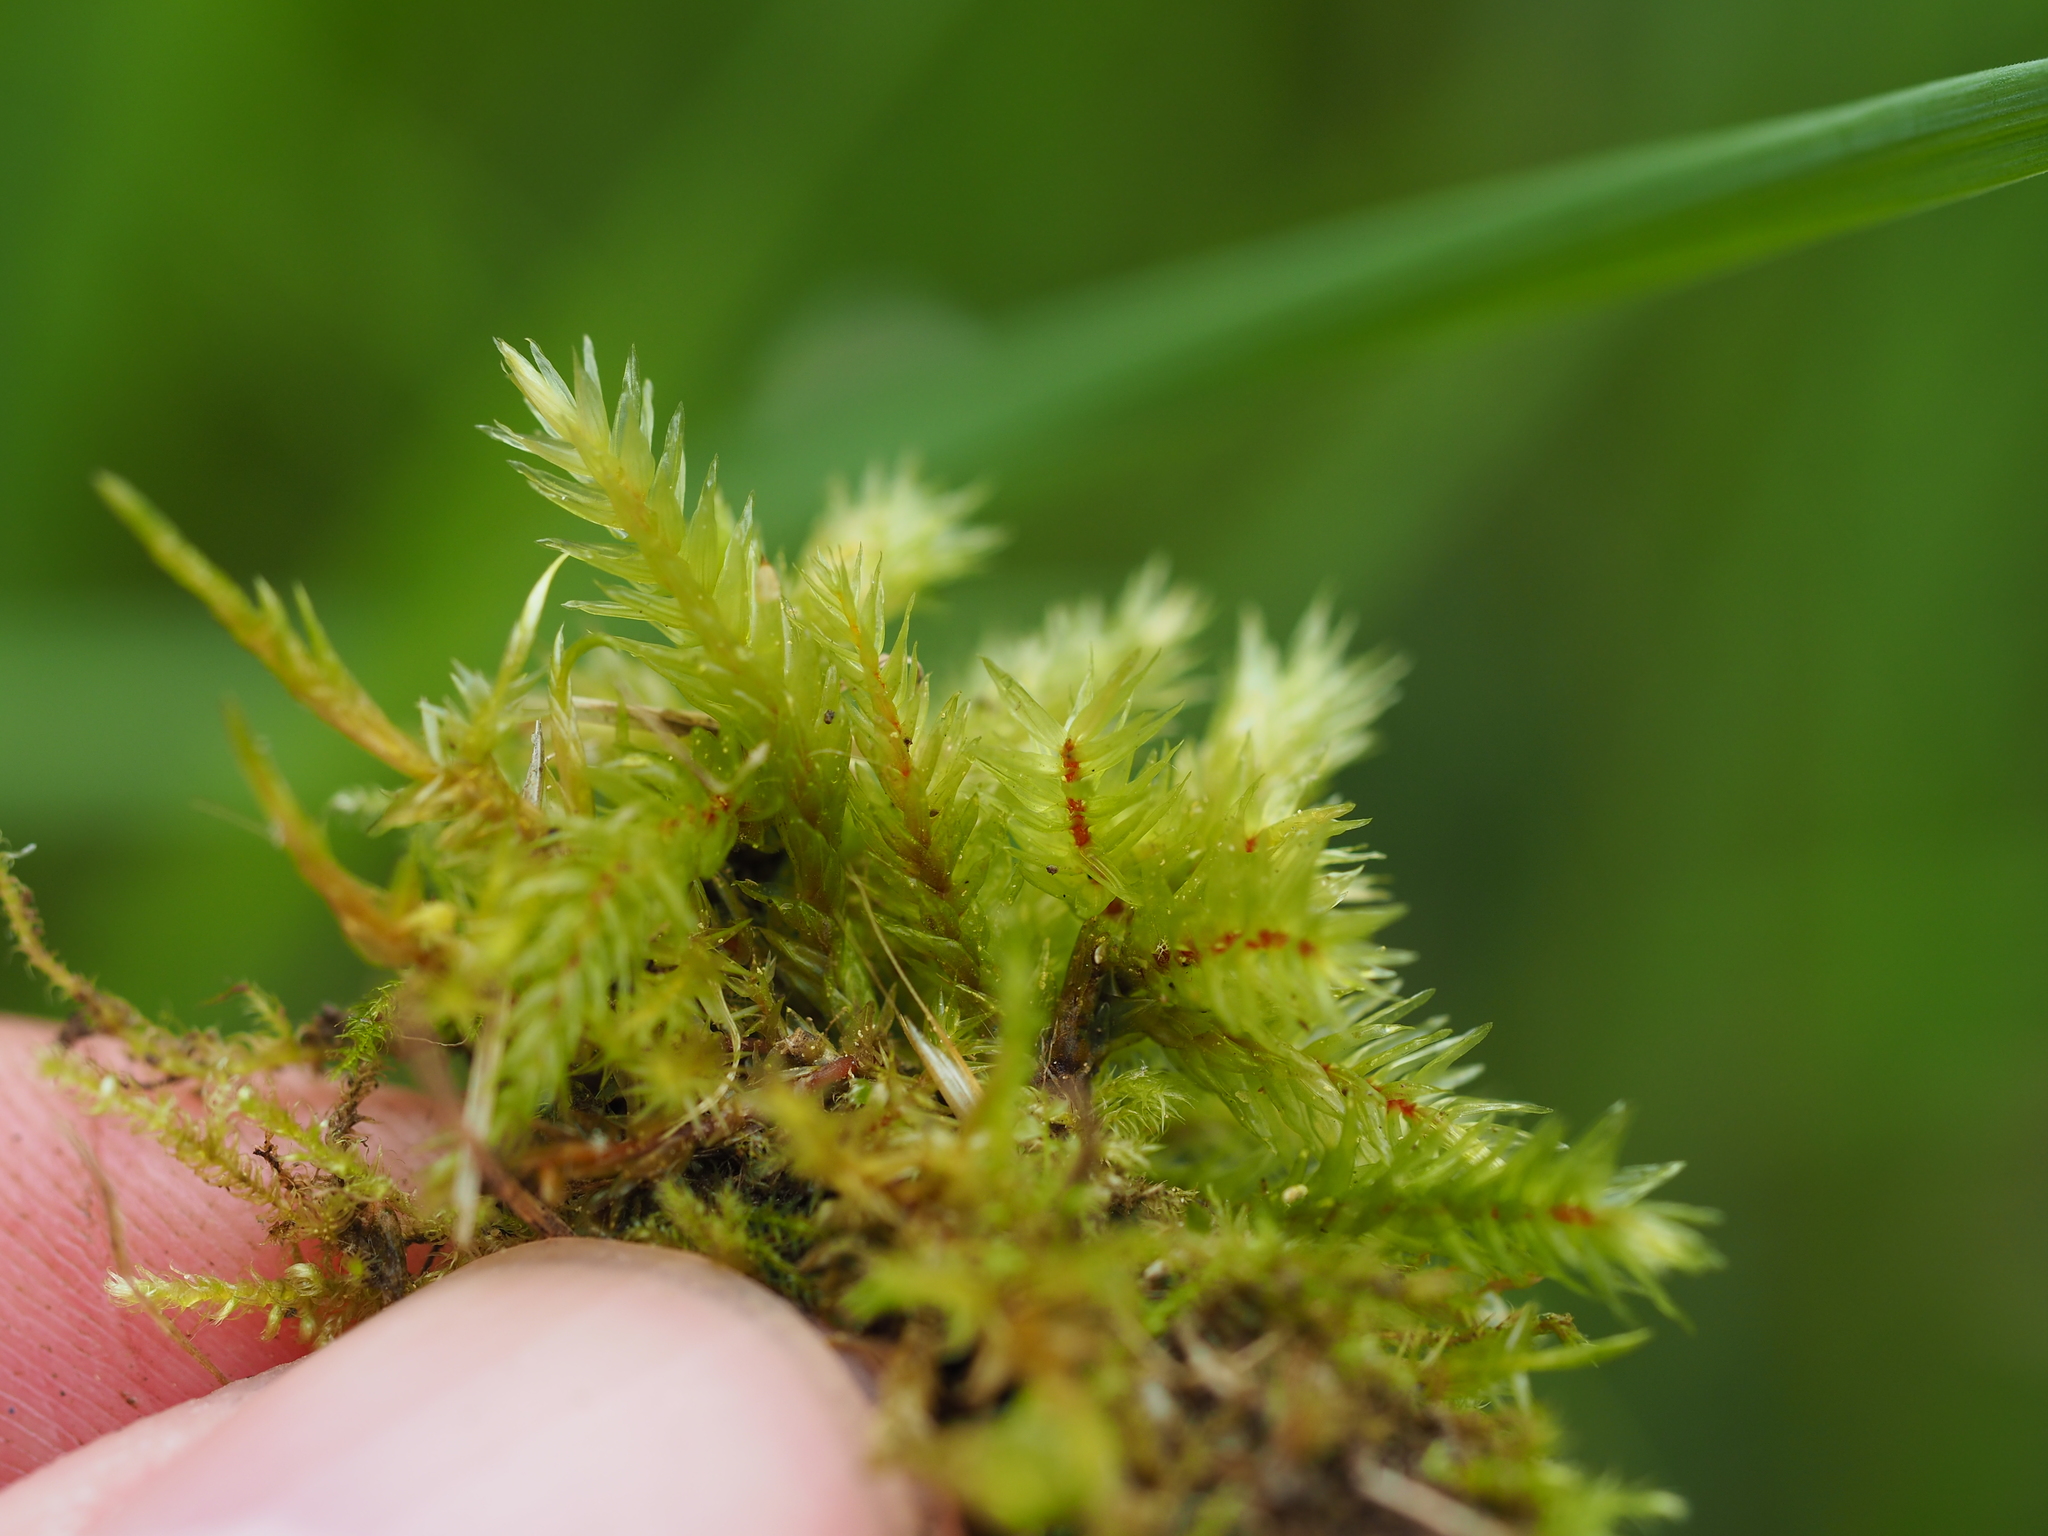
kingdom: Plantae
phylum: Bryophyta
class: Bryopsida
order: Hypnales
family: Climaciaceae
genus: Climacium
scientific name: Climacium dendroides
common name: Northern tree moss
